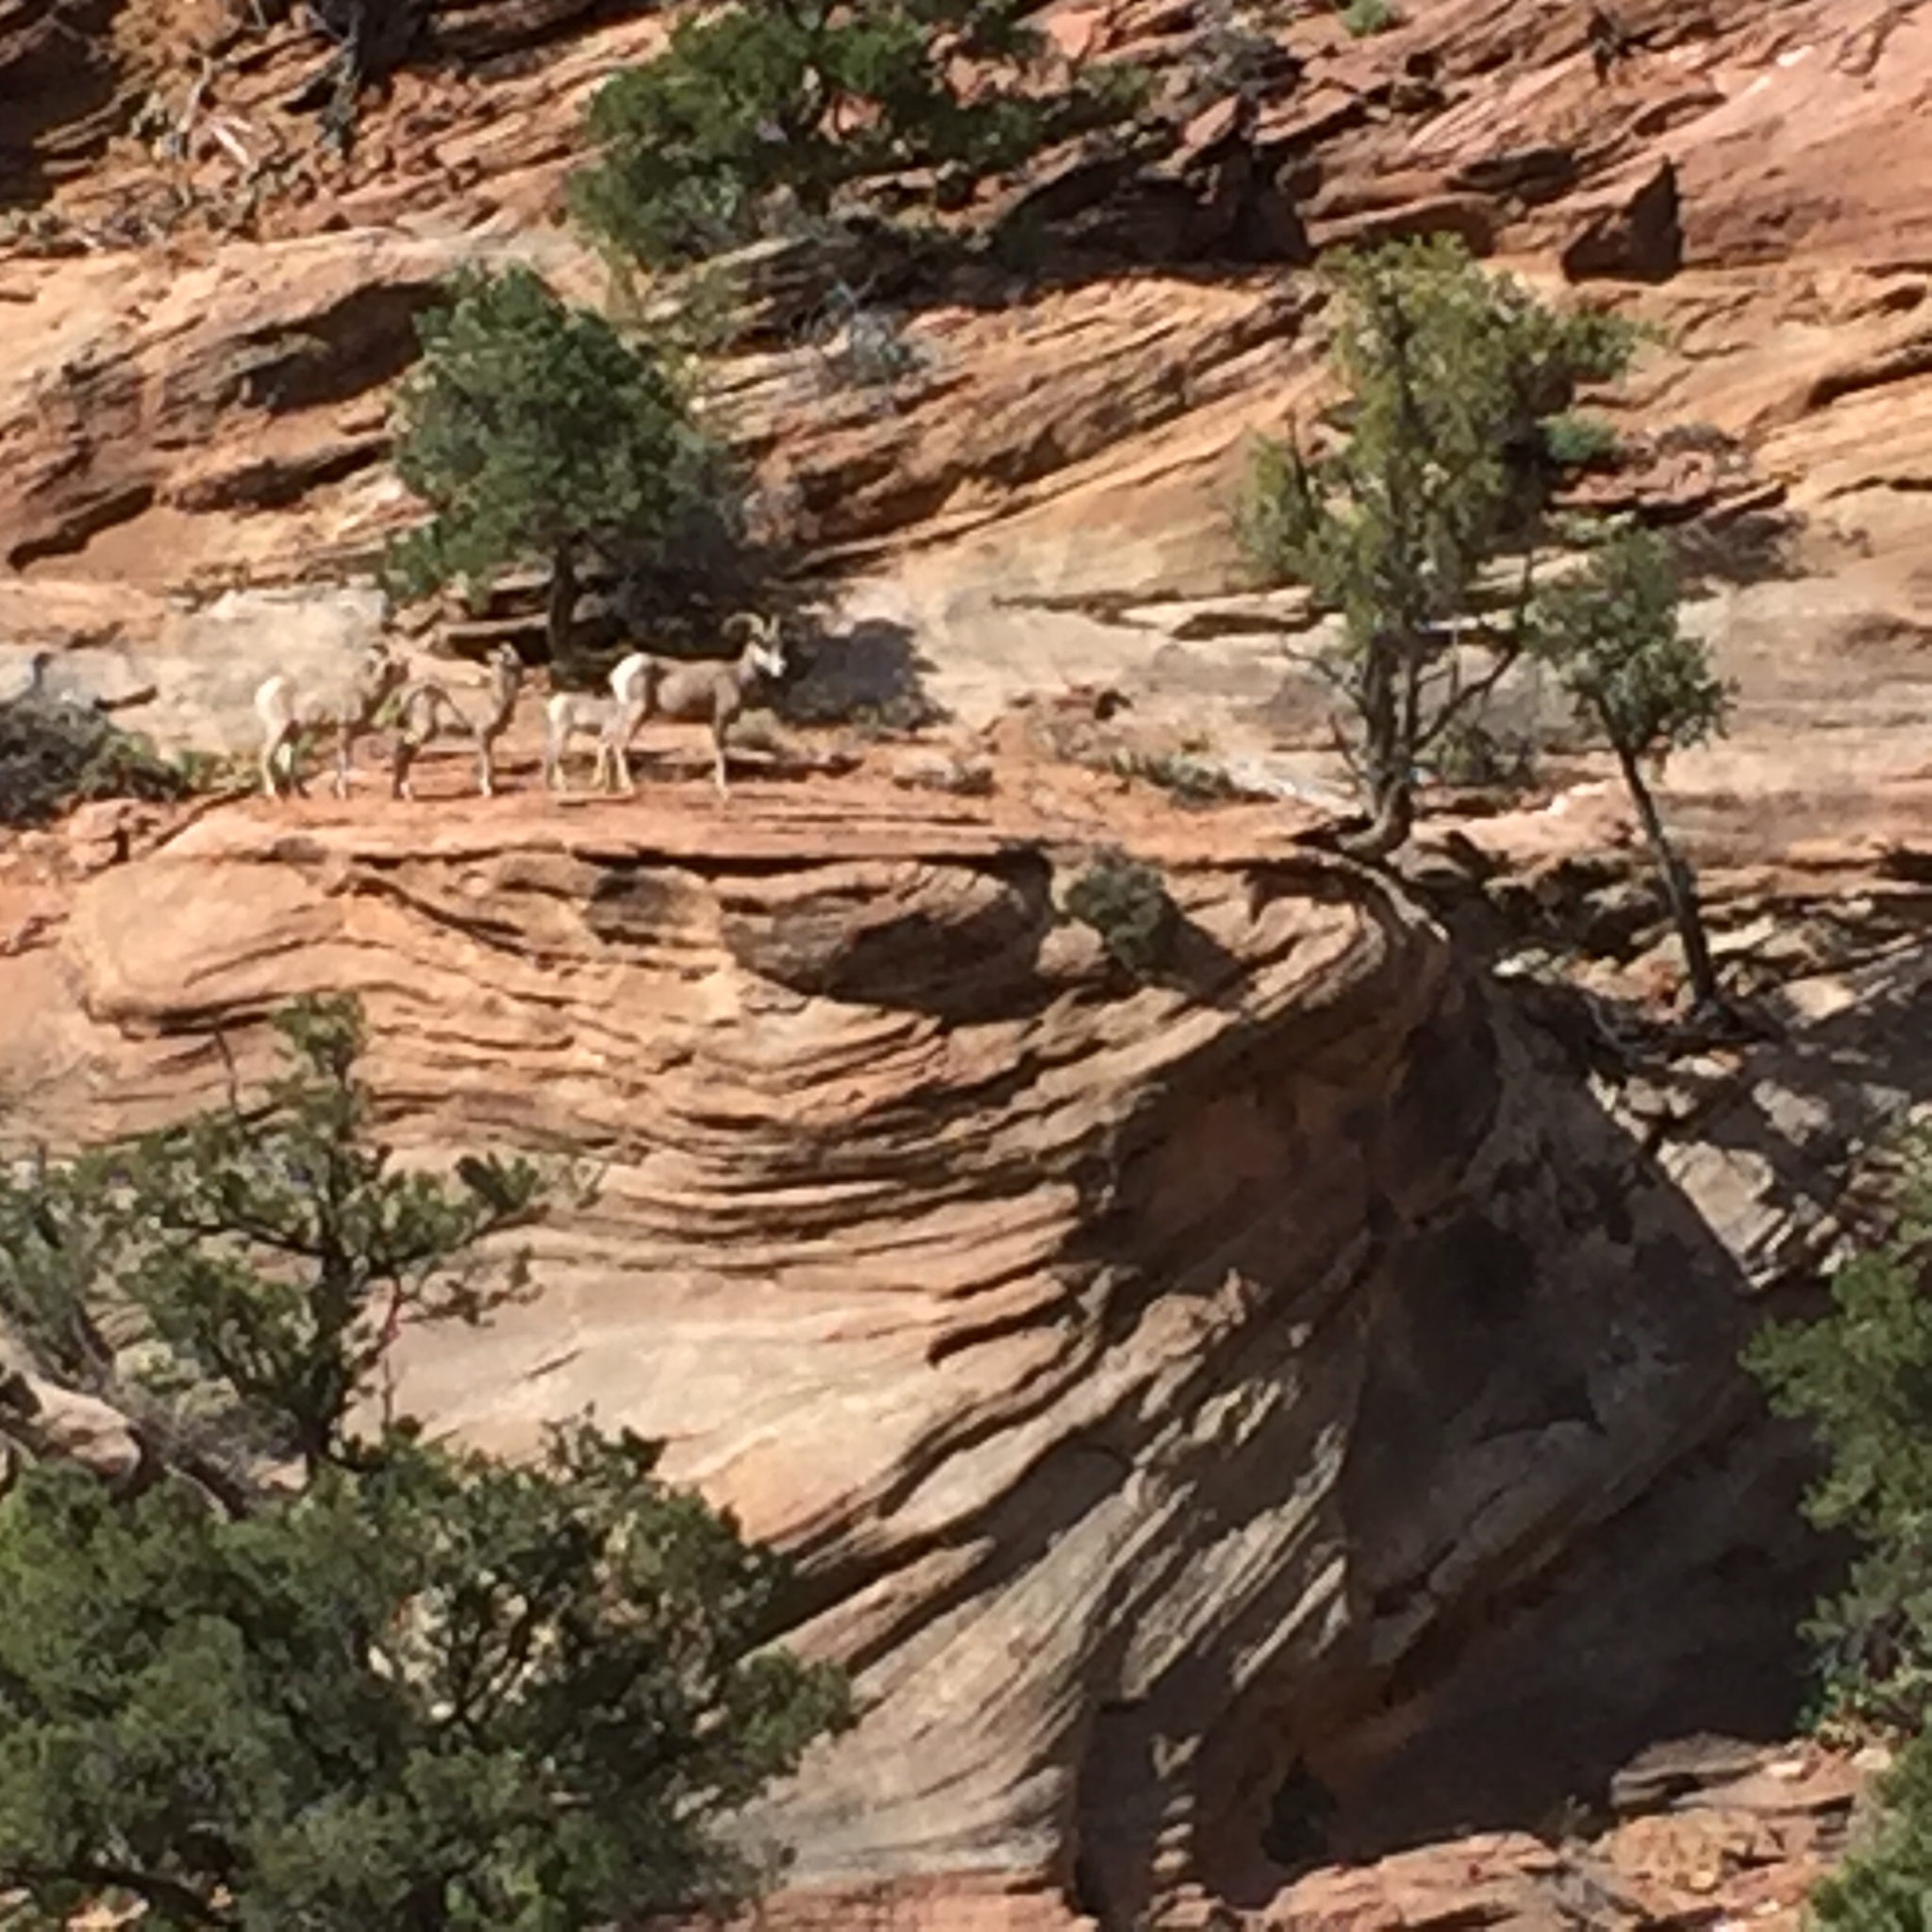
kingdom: Animalia
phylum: Chordata
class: Mammalia
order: Artiodactyla
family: Bovidae
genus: Ovis
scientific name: Ovis canadensis
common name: Bighorn sheep
